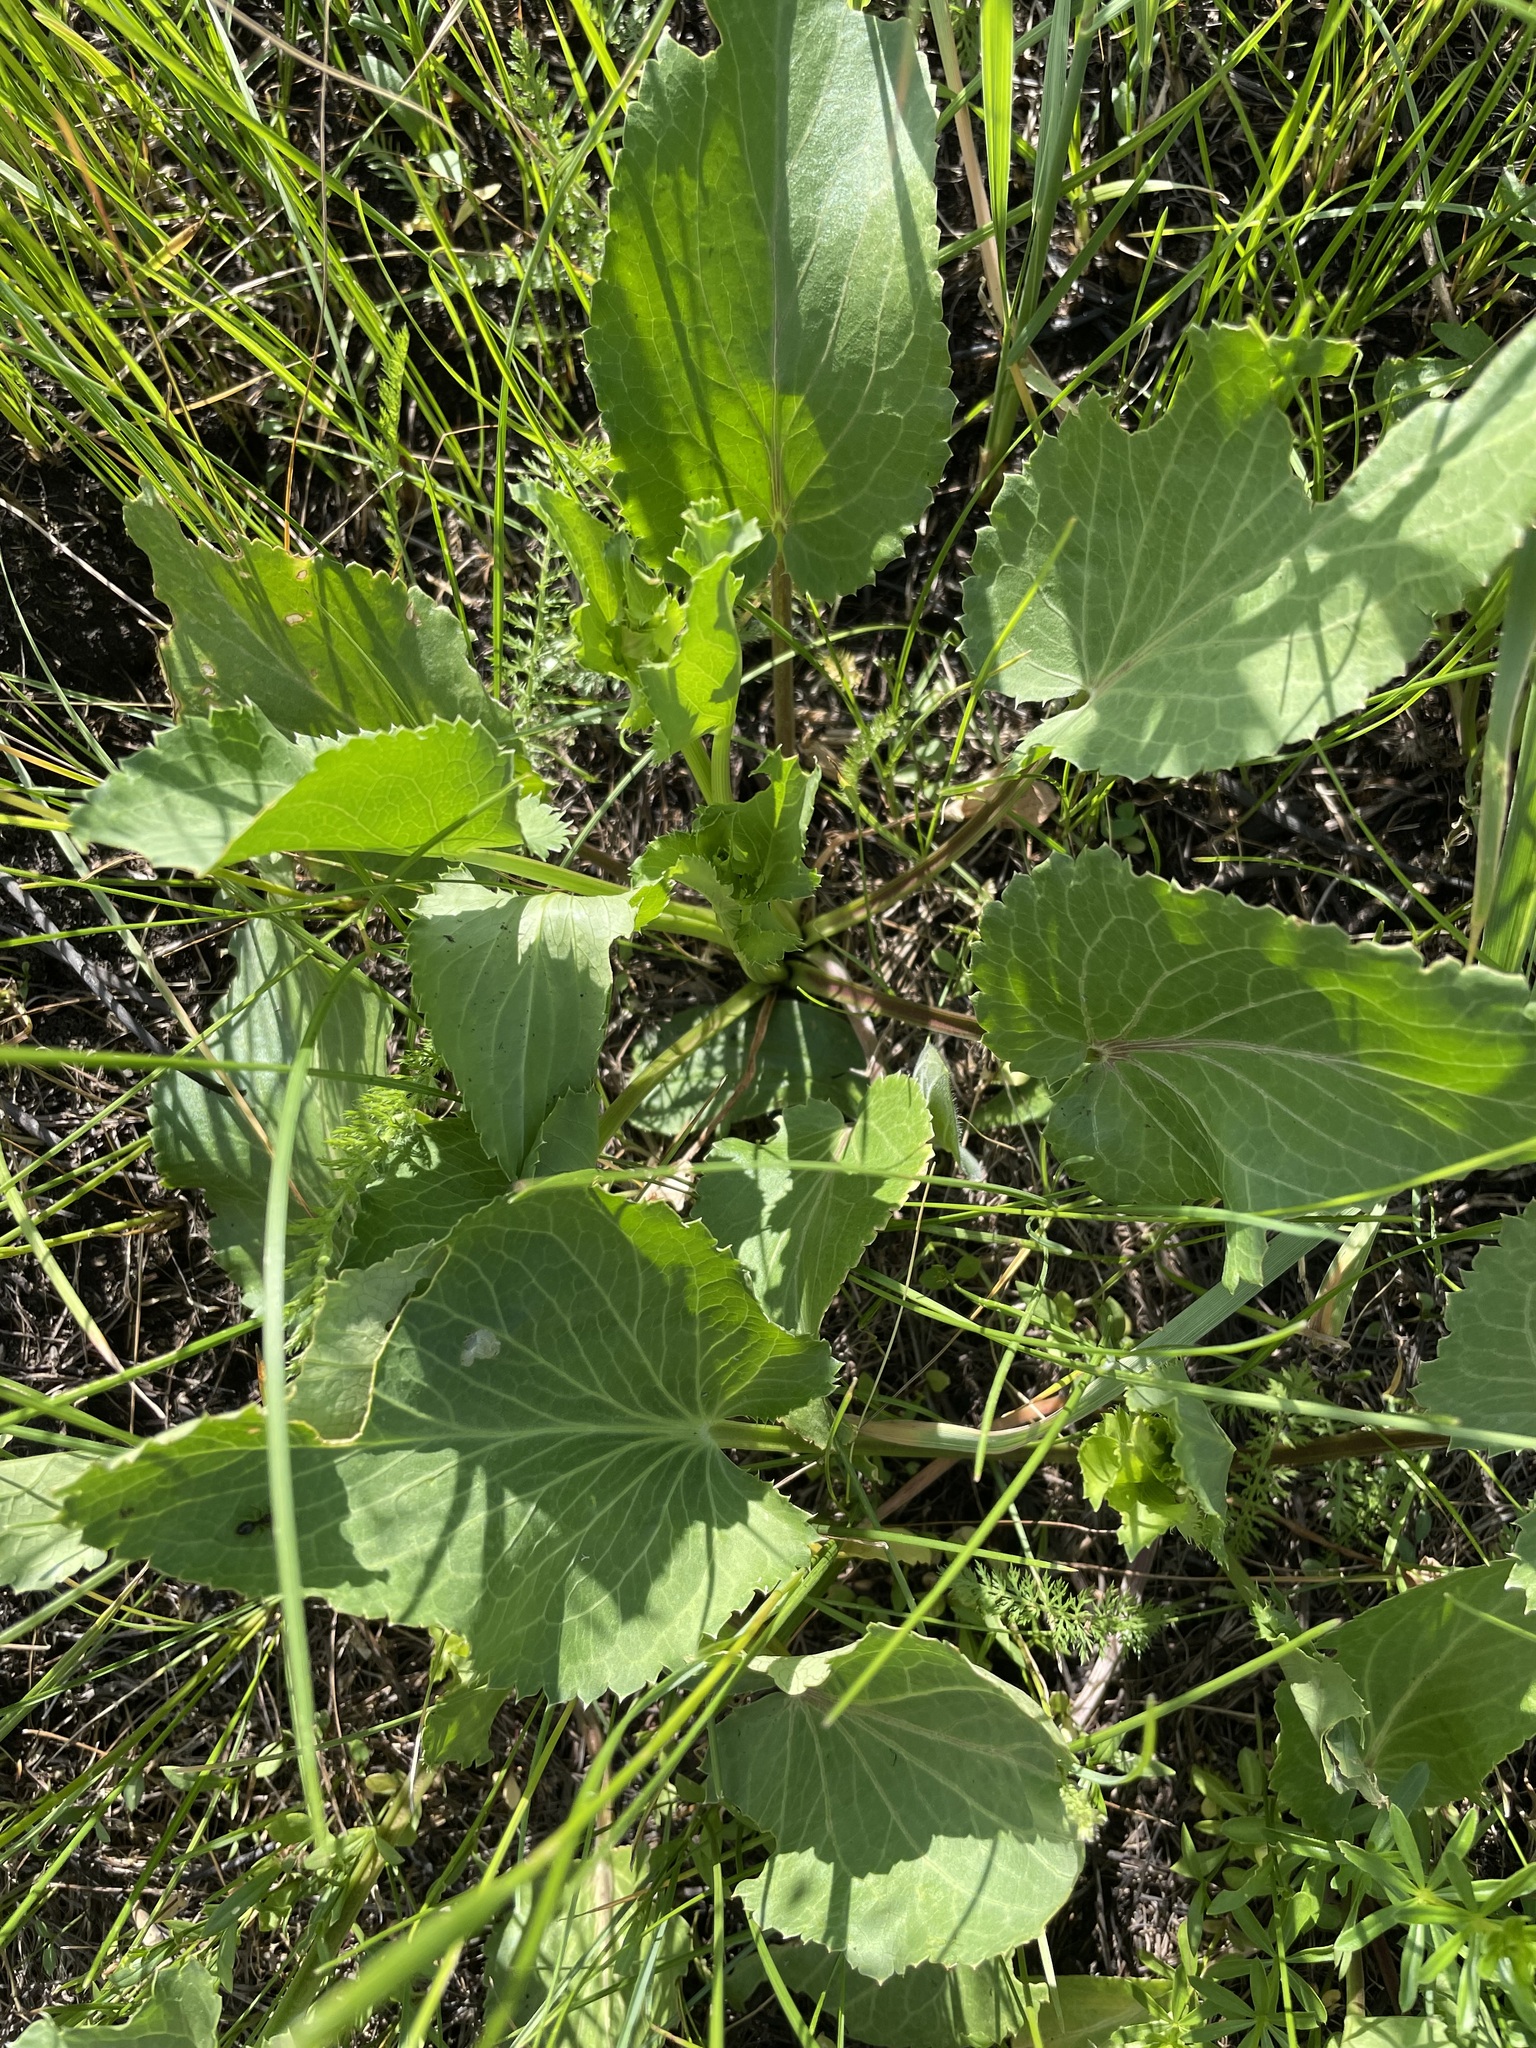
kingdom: Plantae
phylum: Tracheophyta
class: Magnoliopsida
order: Apiales
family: Apiaceae
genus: Eryngium
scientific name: Eryngium planum
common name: Blue eryngo
